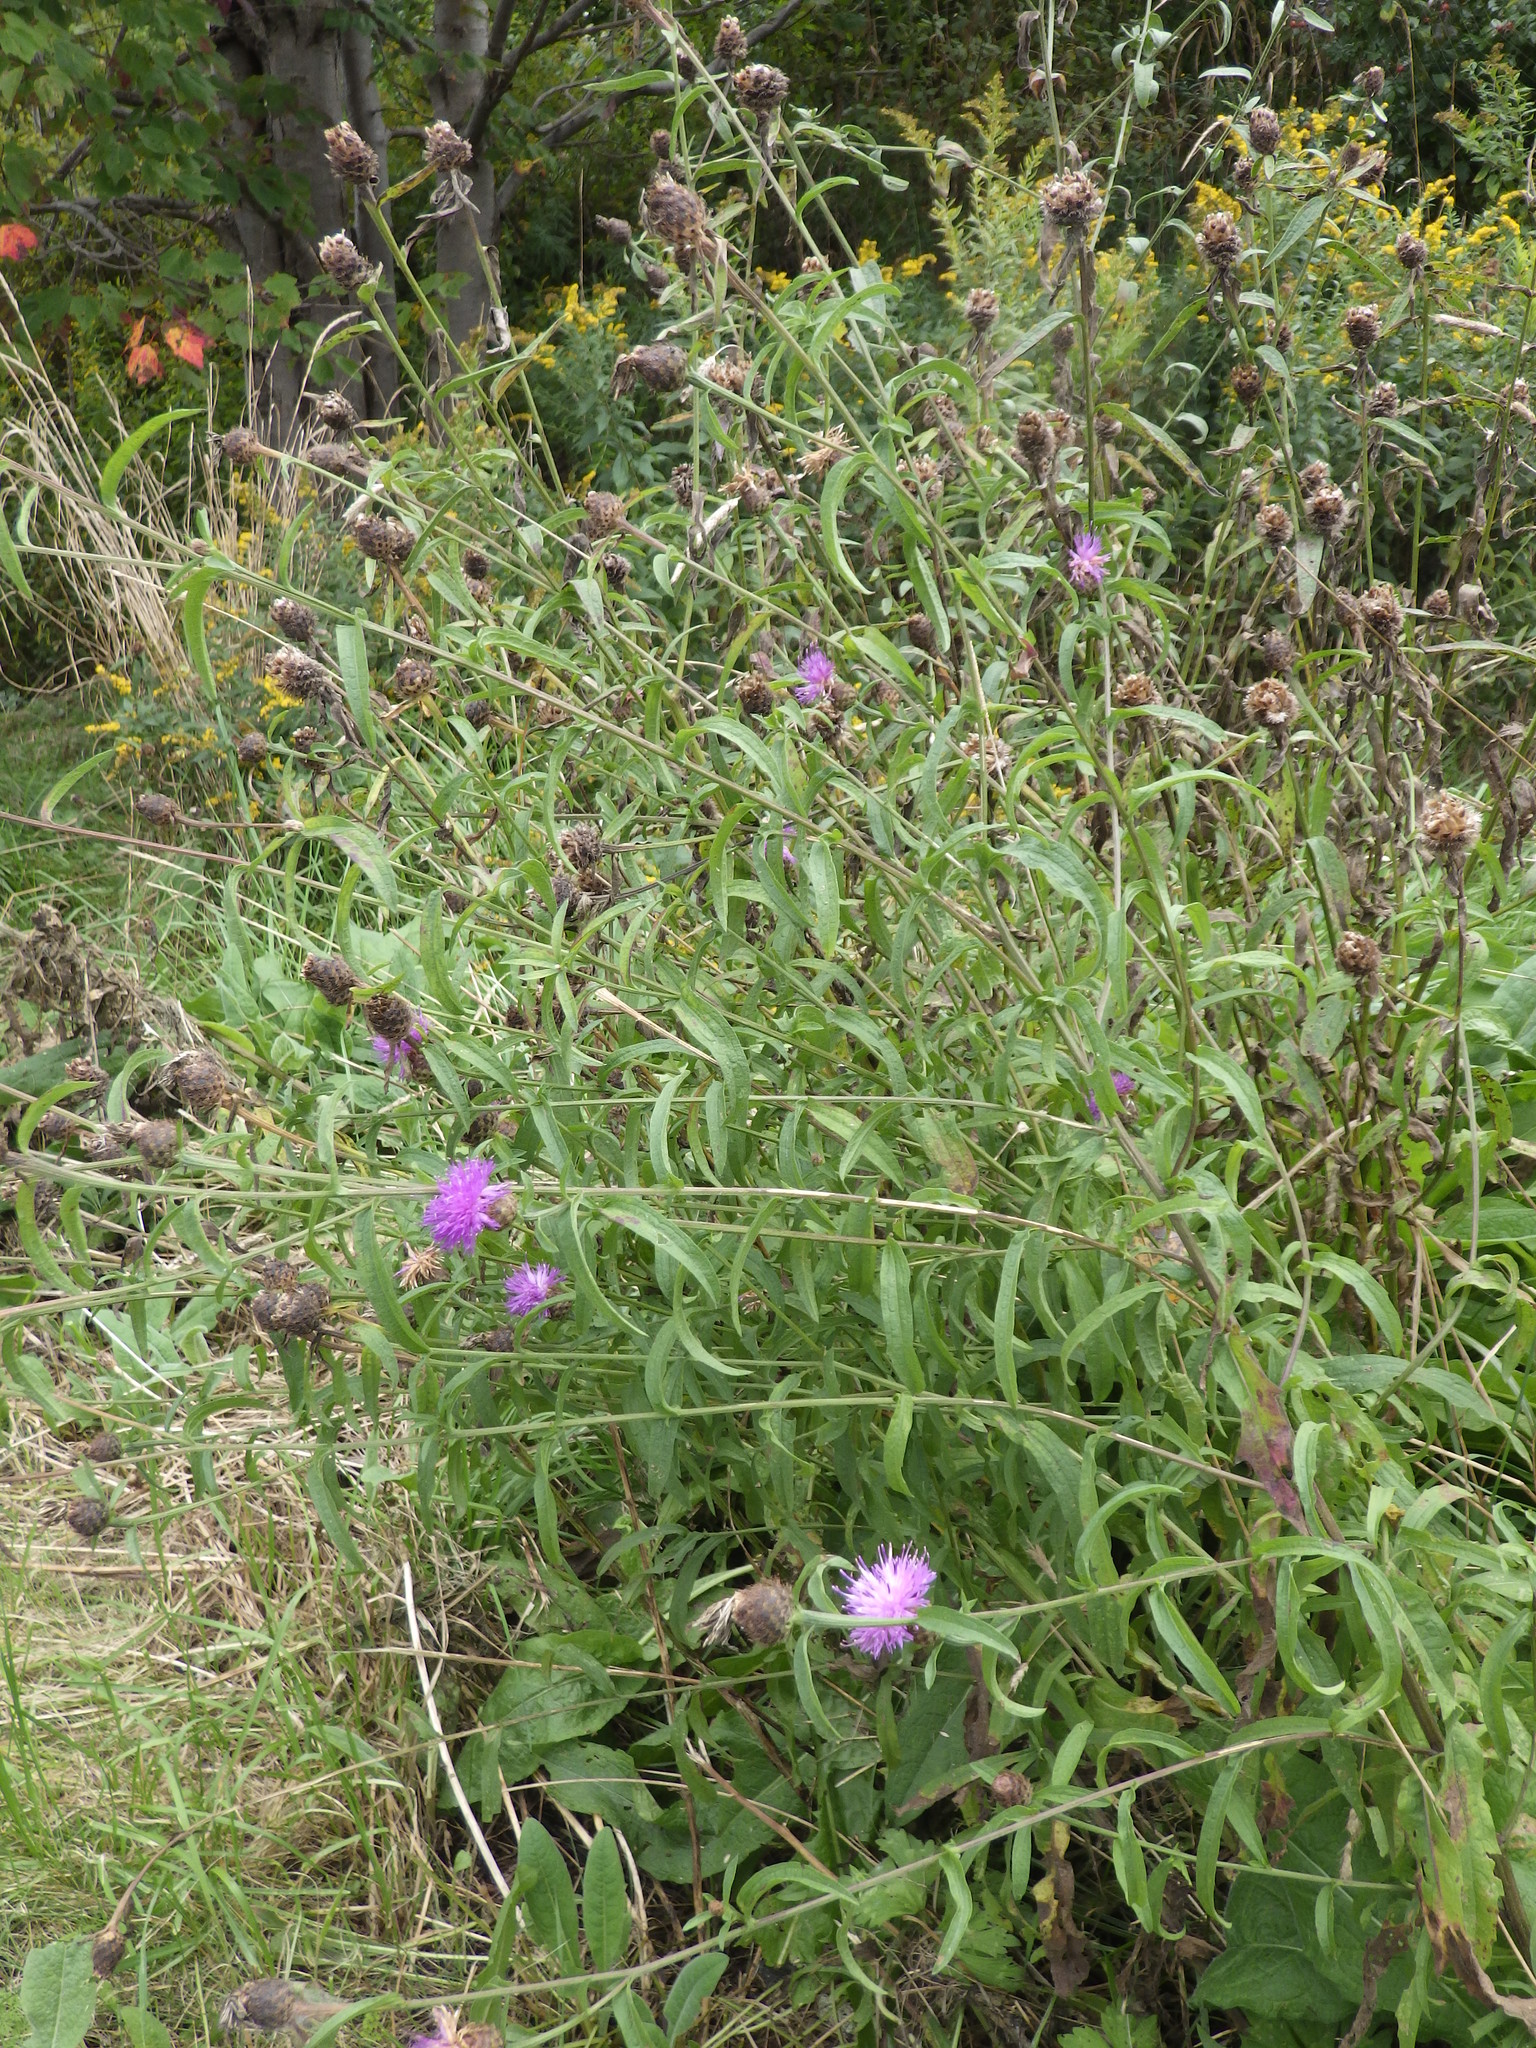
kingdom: Plantae
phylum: Tracheophyta
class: Magnoliopsida
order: Asterales
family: Asteraceae
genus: Centaurea
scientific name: Centaurea nigra
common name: Lesser knapweed
